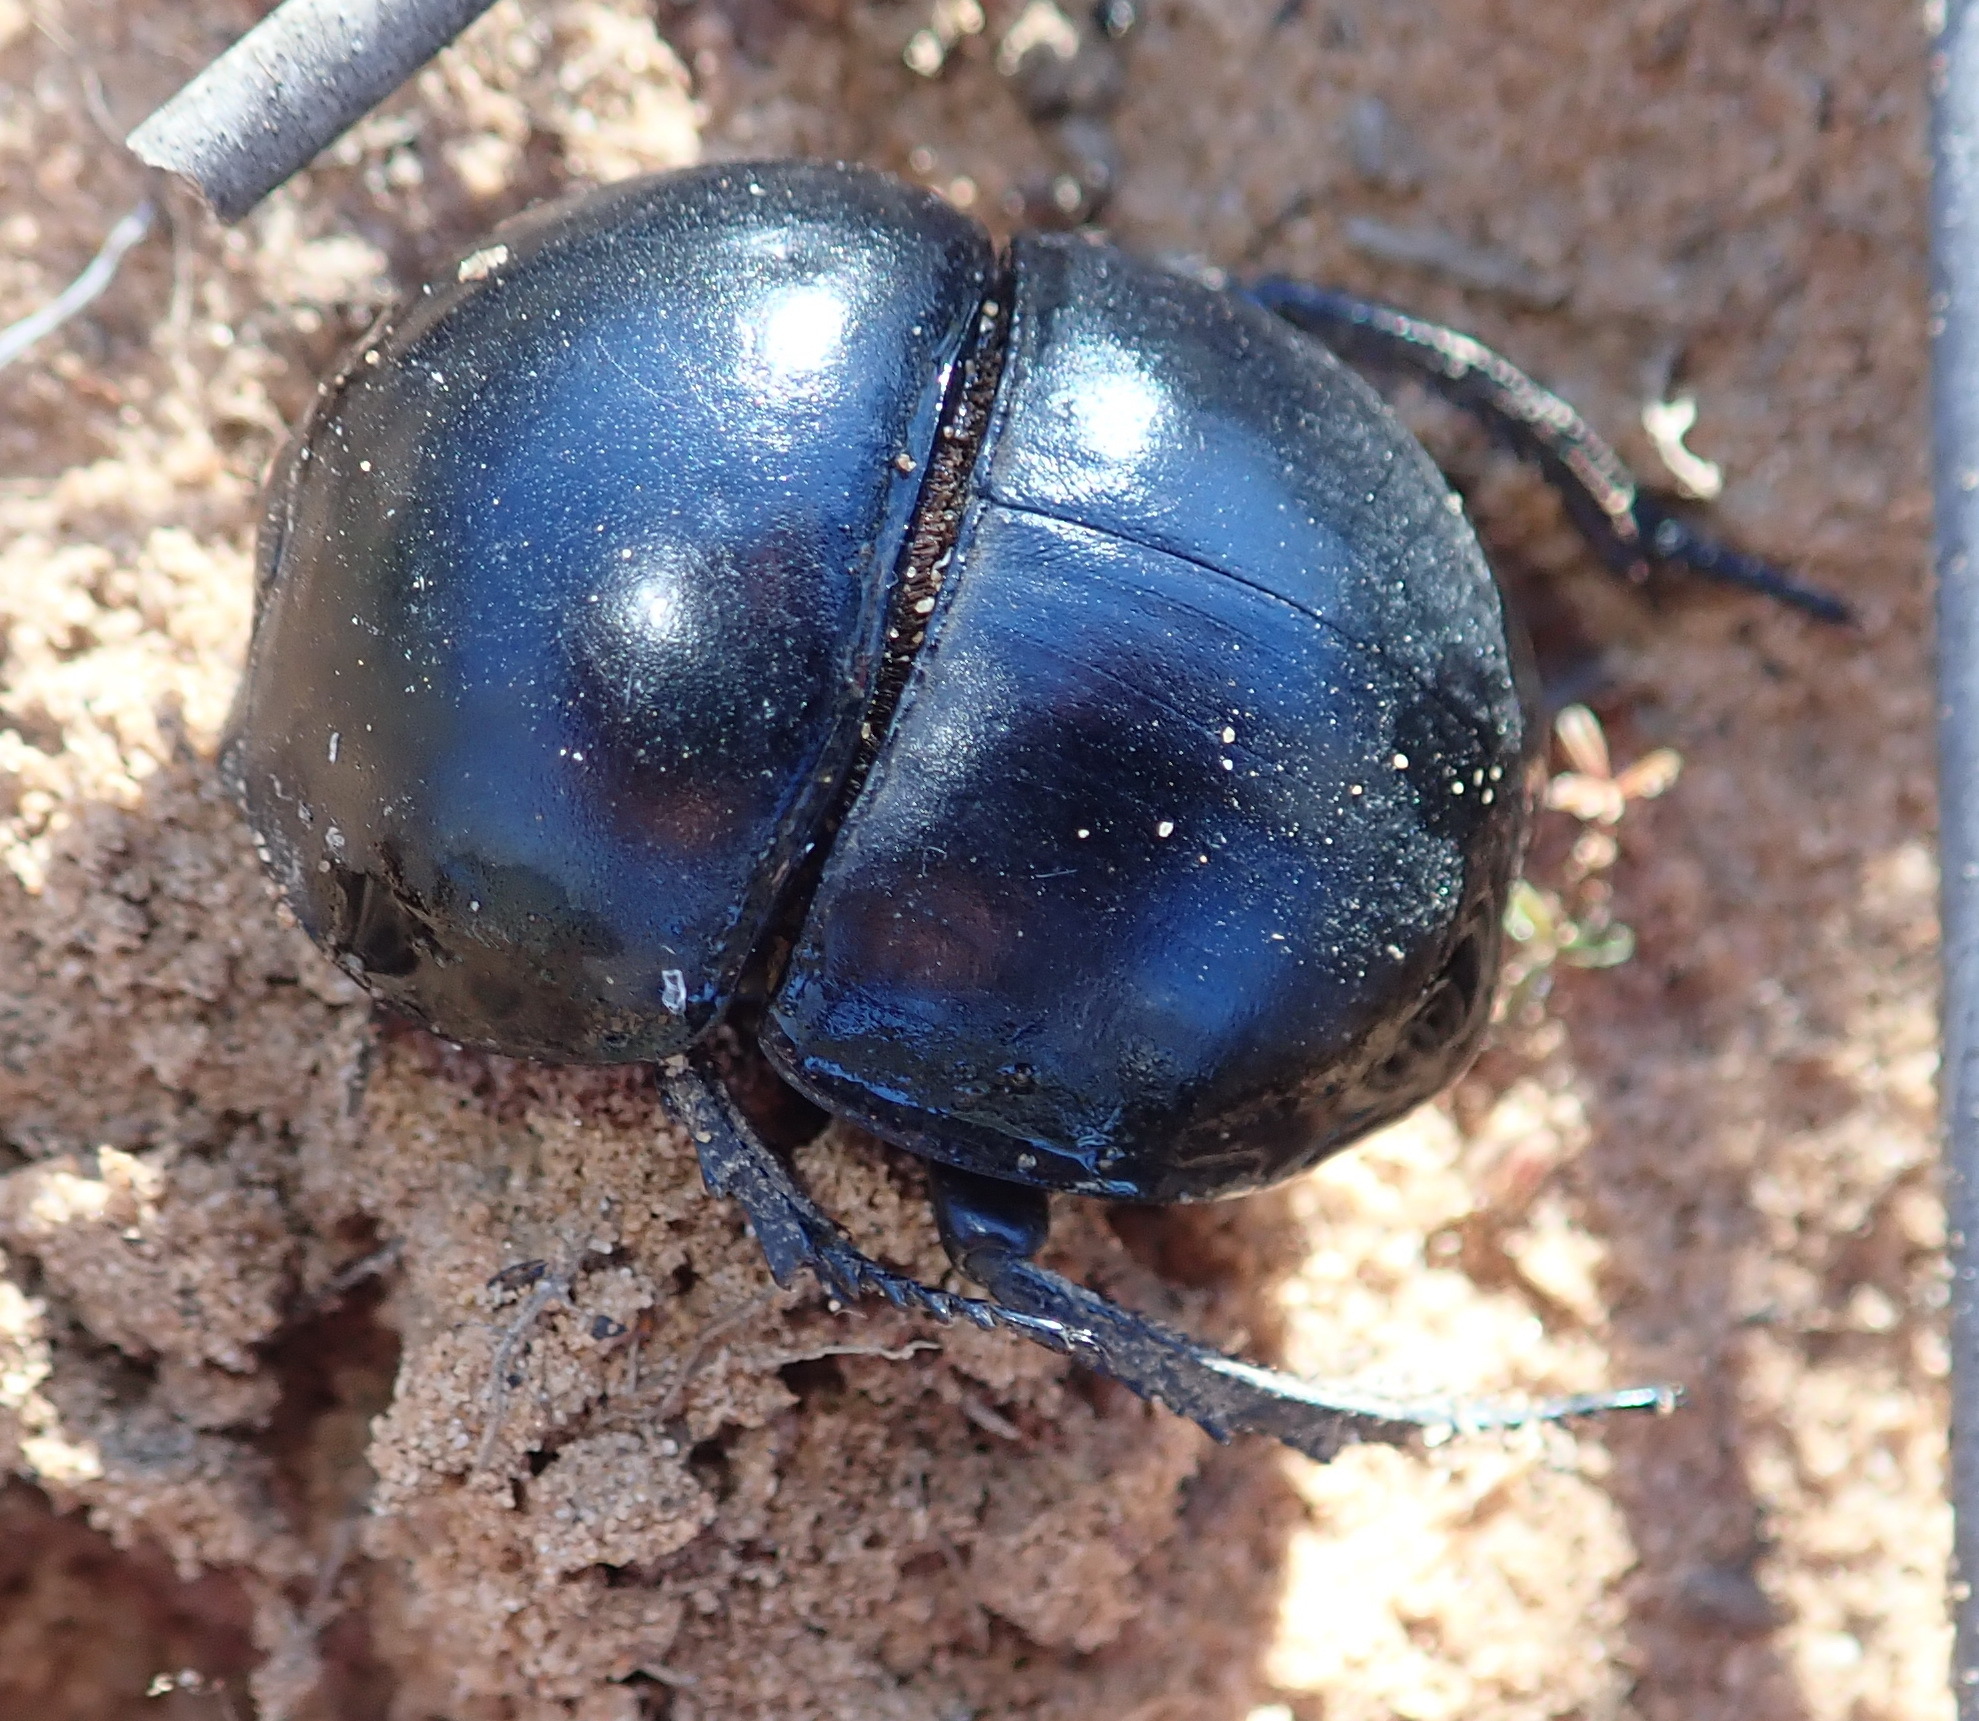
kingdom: Animalia
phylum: Arthropoda
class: Insecta
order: Coleoptera
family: Scarabaeidae
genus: Circellium
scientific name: Circellium bacchus
